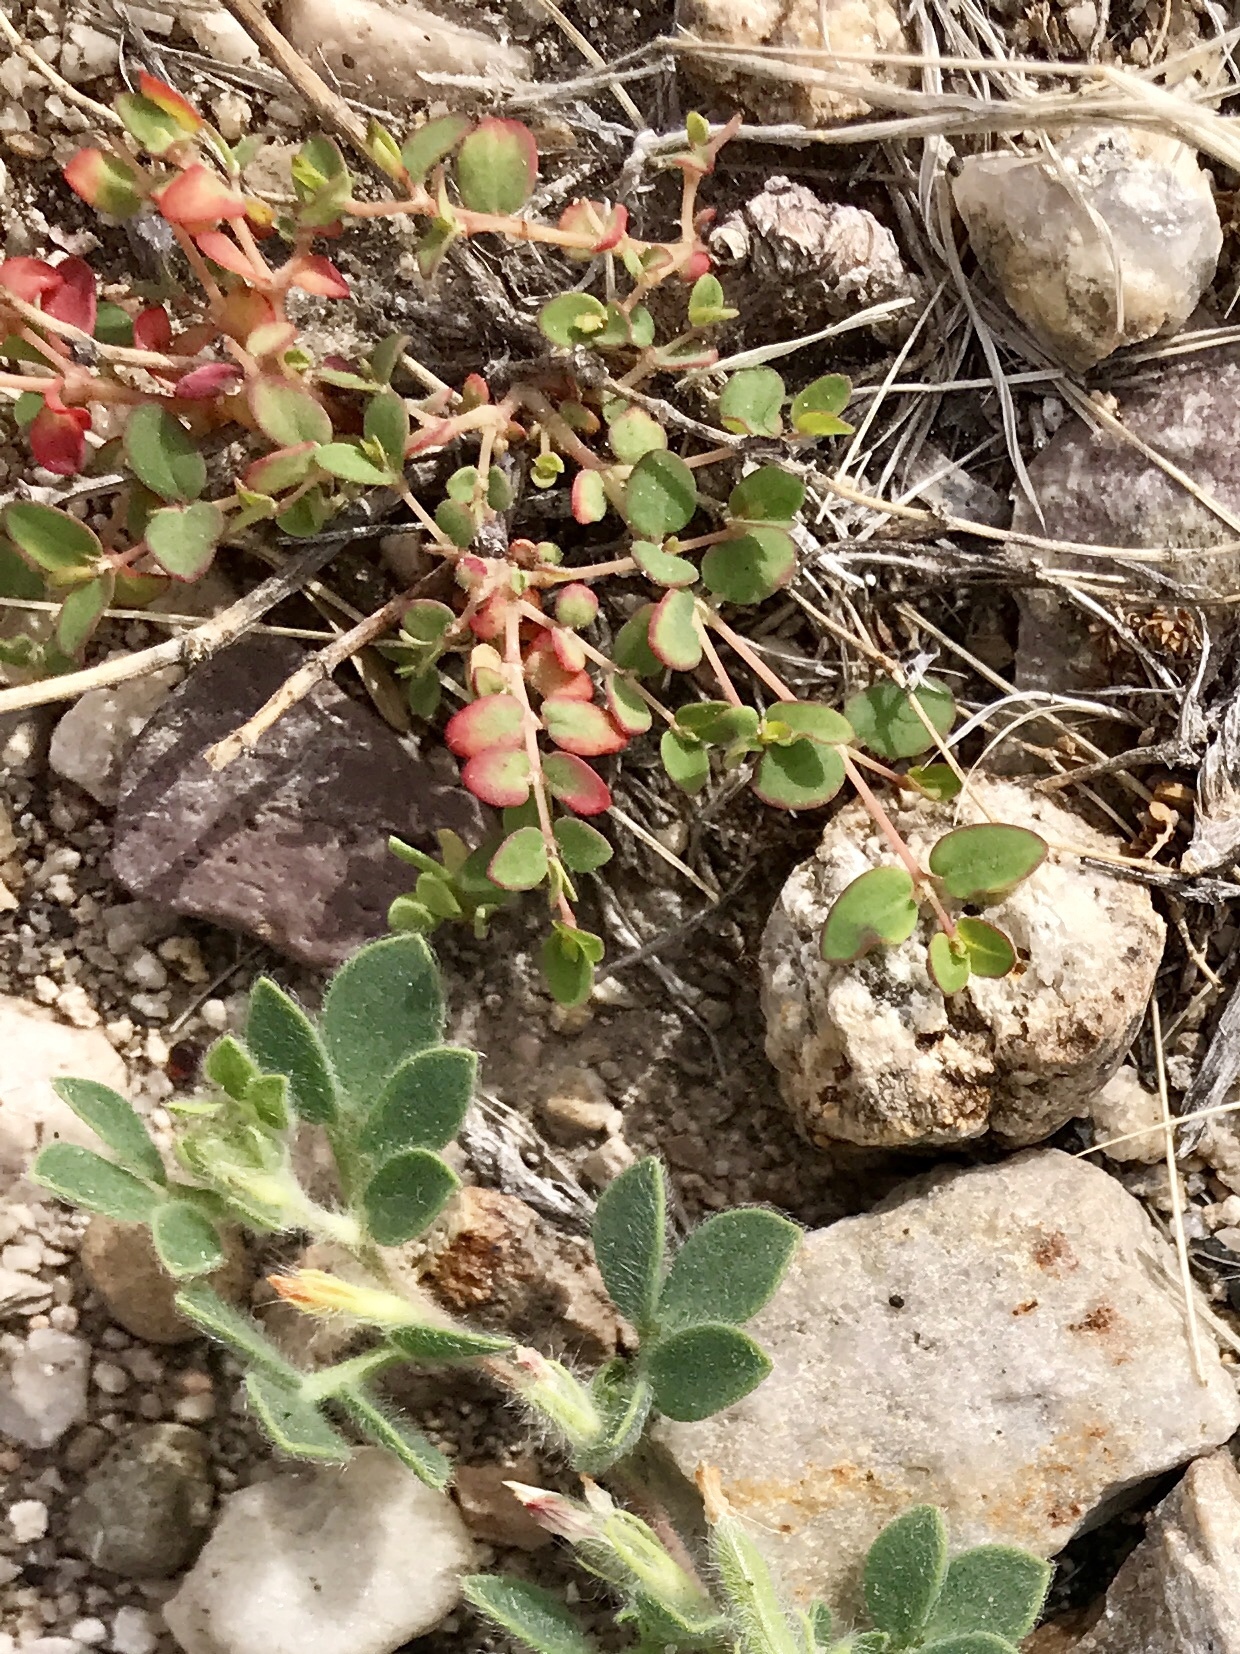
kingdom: Plantae
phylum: Tracheophyta
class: Magnoliopsida
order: Malpighiales
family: Euphorbiaceae
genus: Euphorbia
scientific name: Euphorbia polycarpa
